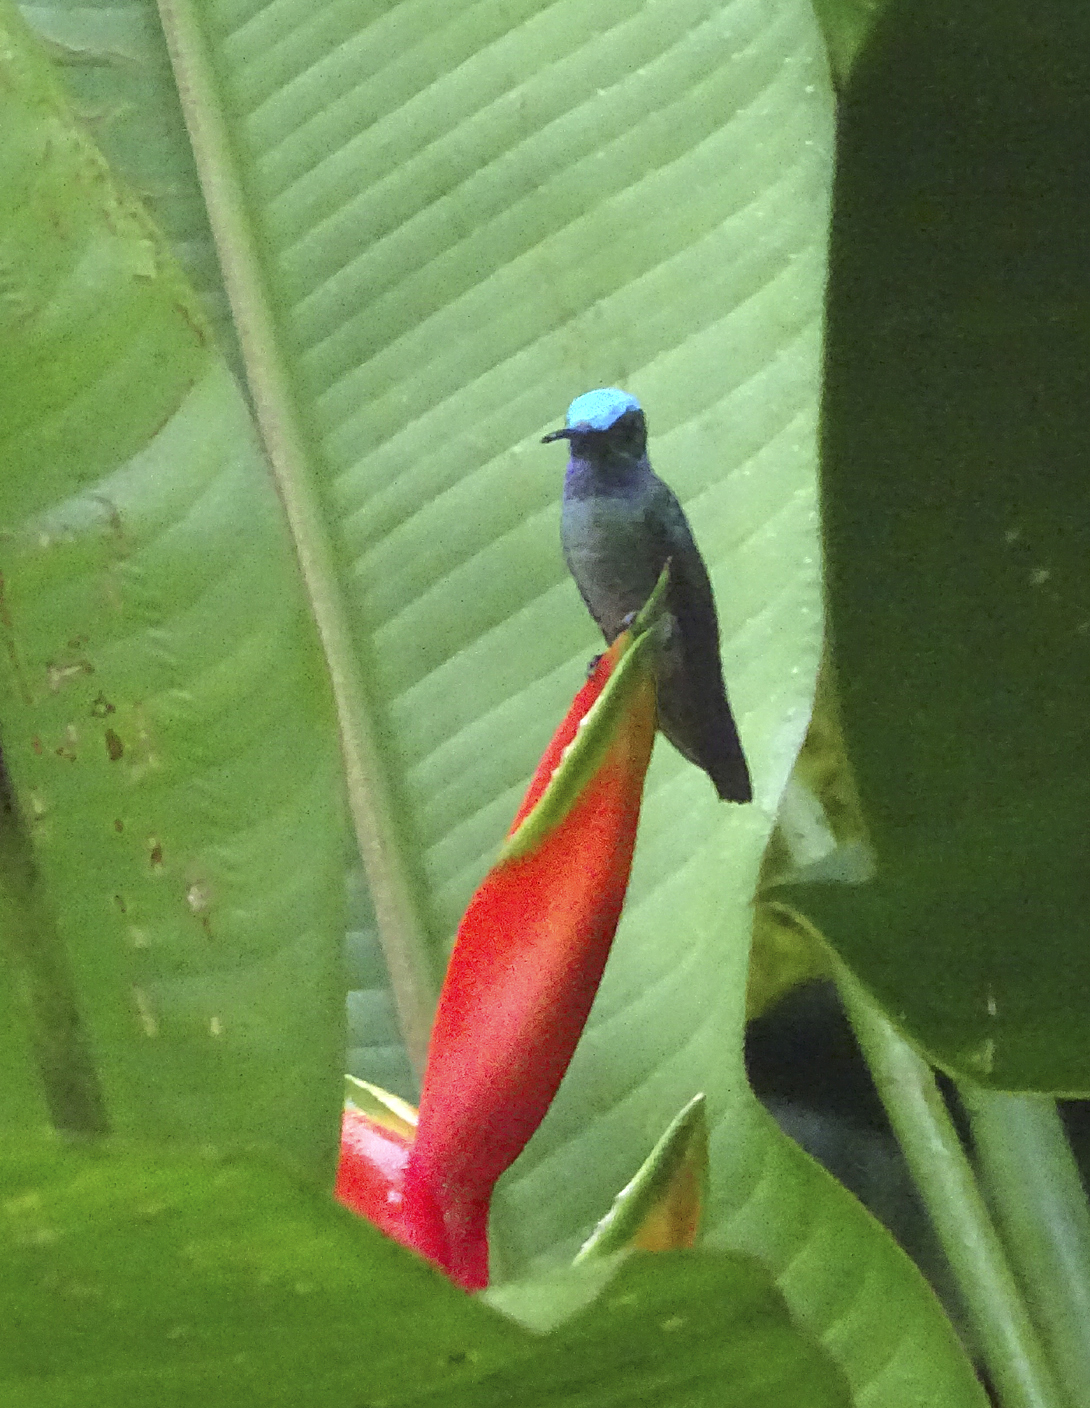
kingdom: Animalia
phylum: Chordata
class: Aves
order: Apodiformes
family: Trochilidae
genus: Polyerata
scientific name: Polyerata decora
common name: Charming hummingbird
